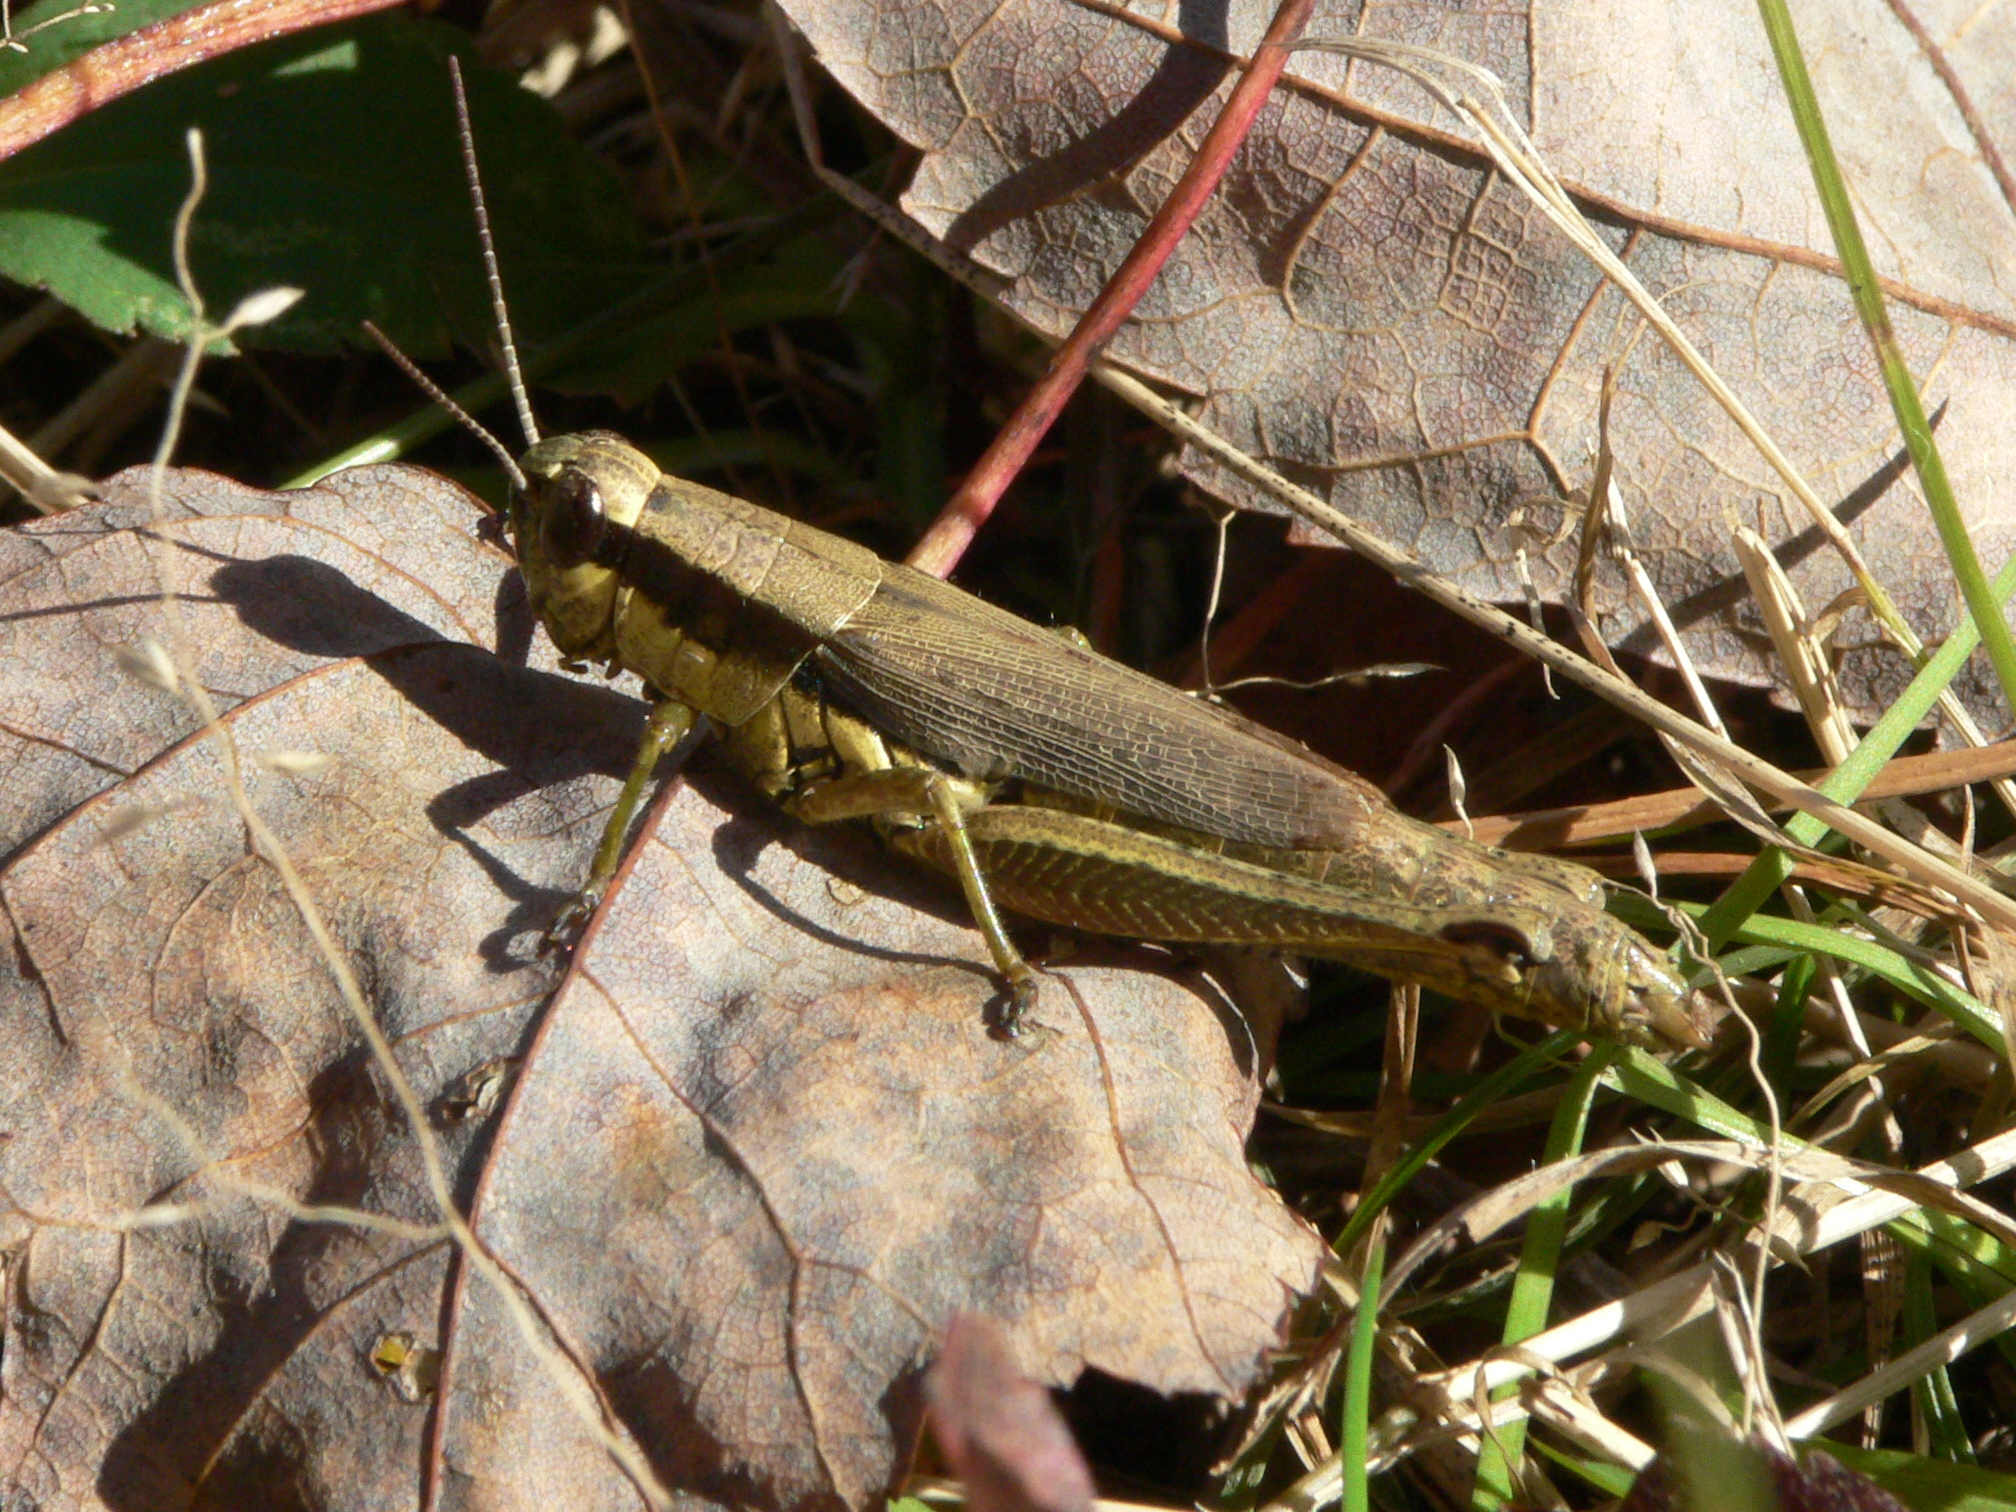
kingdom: Animalia
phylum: Arthropoda
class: Insecta
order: Orthoptera
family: Acrididae
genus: Paroxya
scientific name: Paroxya clavuligera
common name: Olive-green swamp grasshopper
